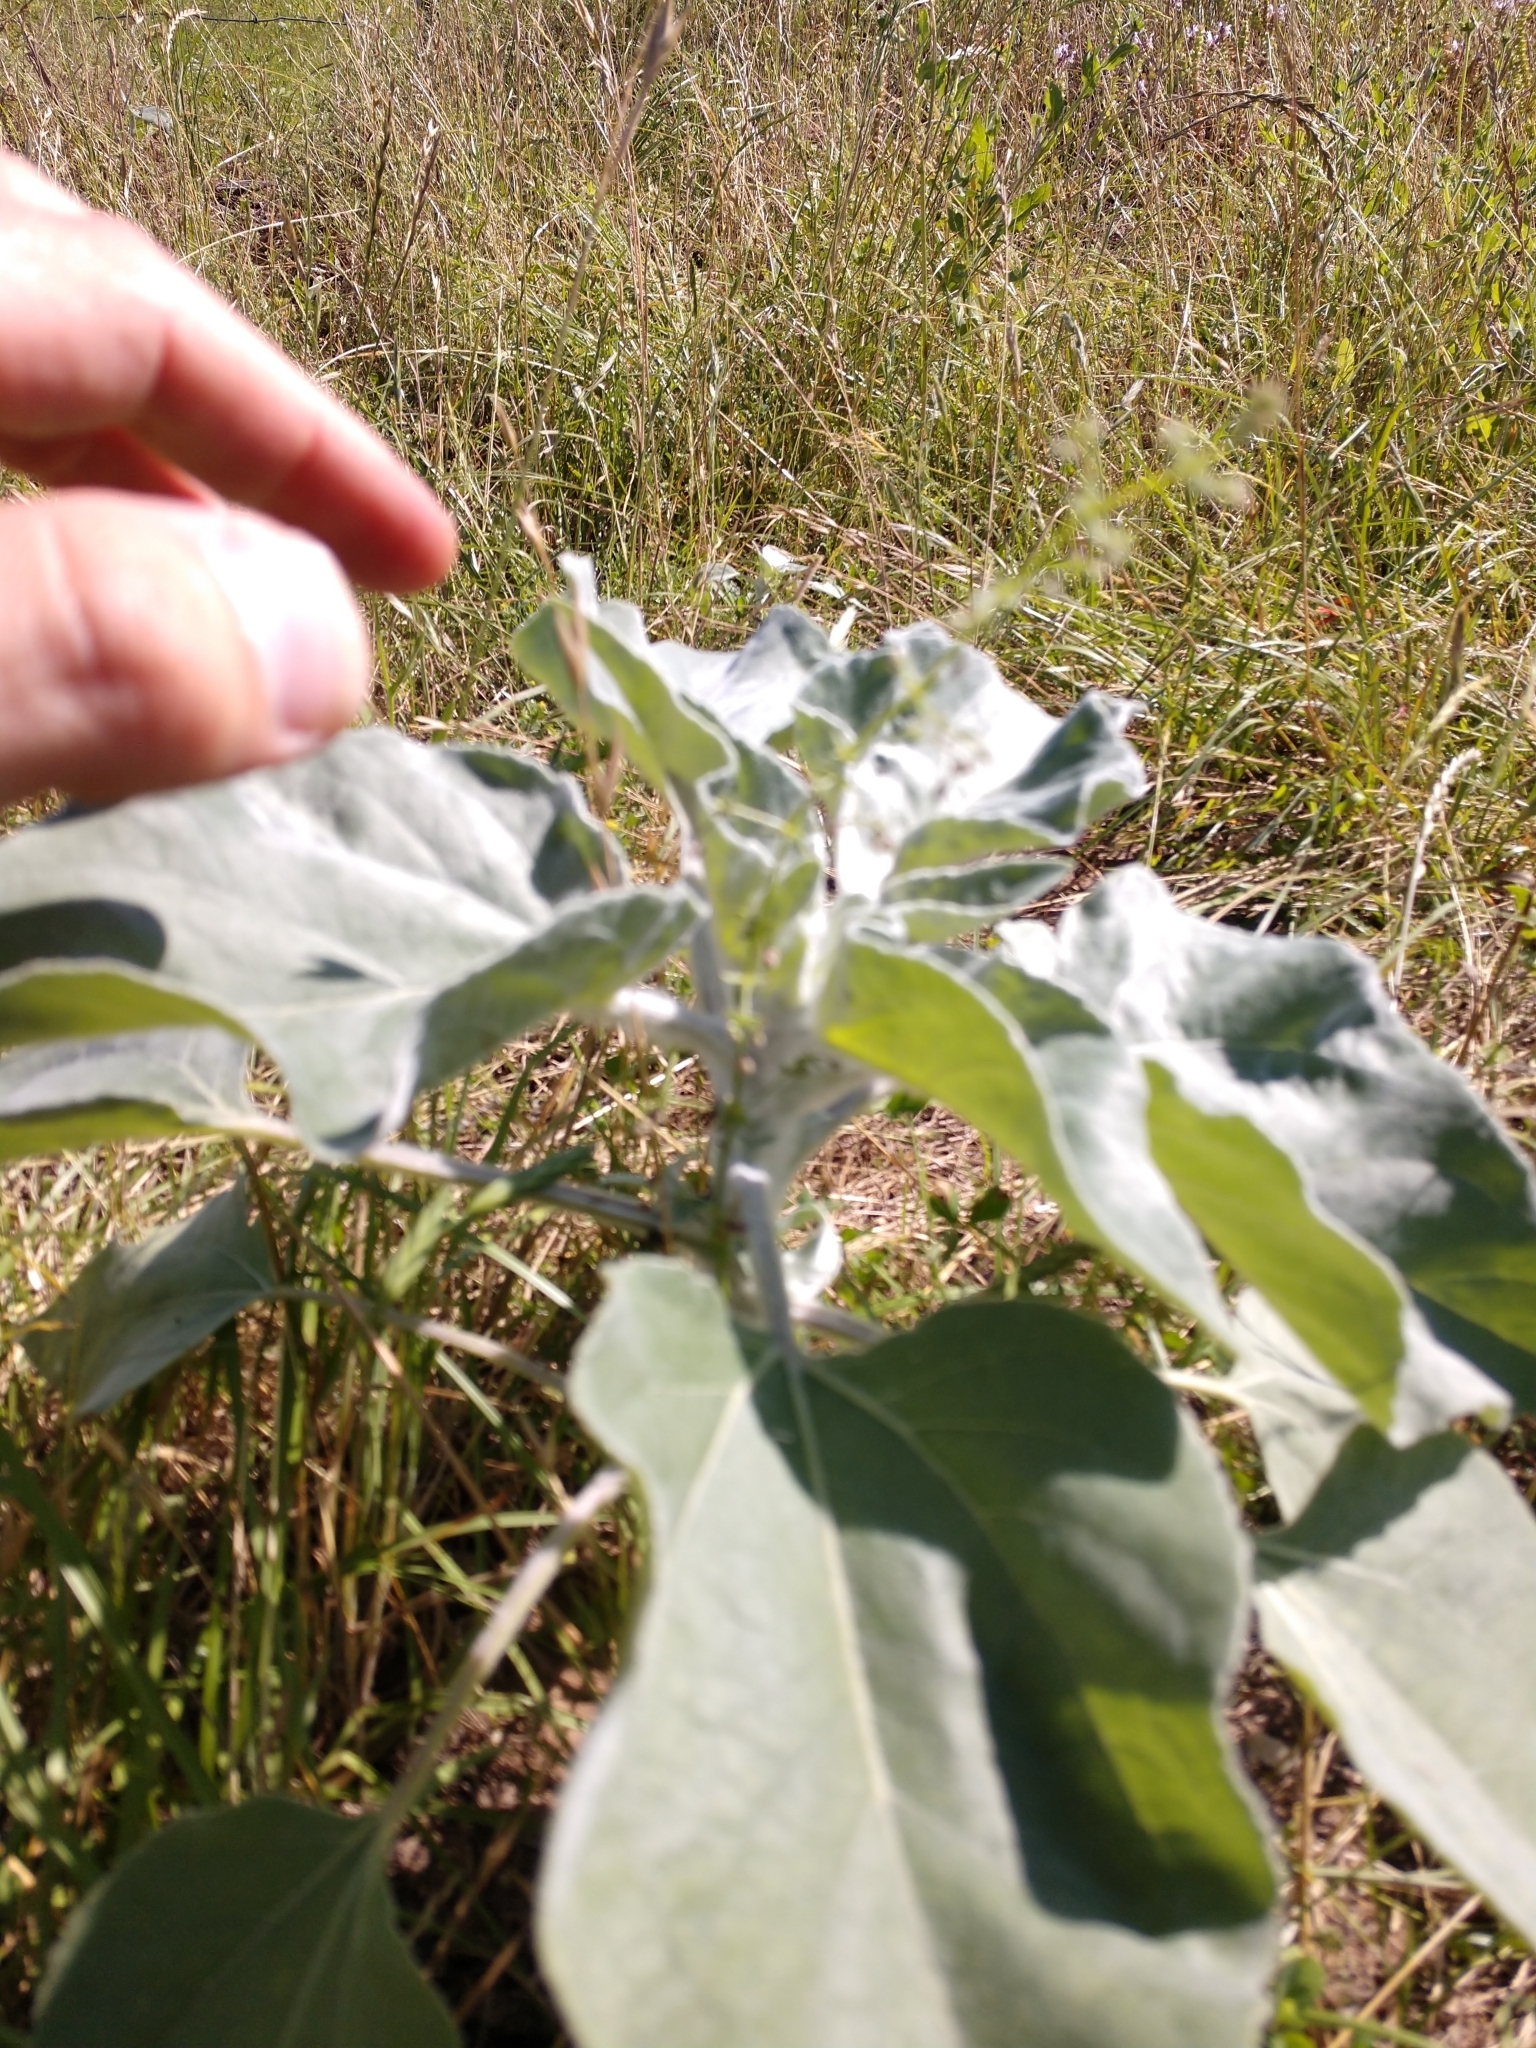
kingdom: Plantae
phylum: Tracheophyta
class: Magnoliopsida
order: Asterales
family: Asteraceae
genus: Helianthus
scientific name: Helianthus argophyllus
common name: Silverleaf sunflower
